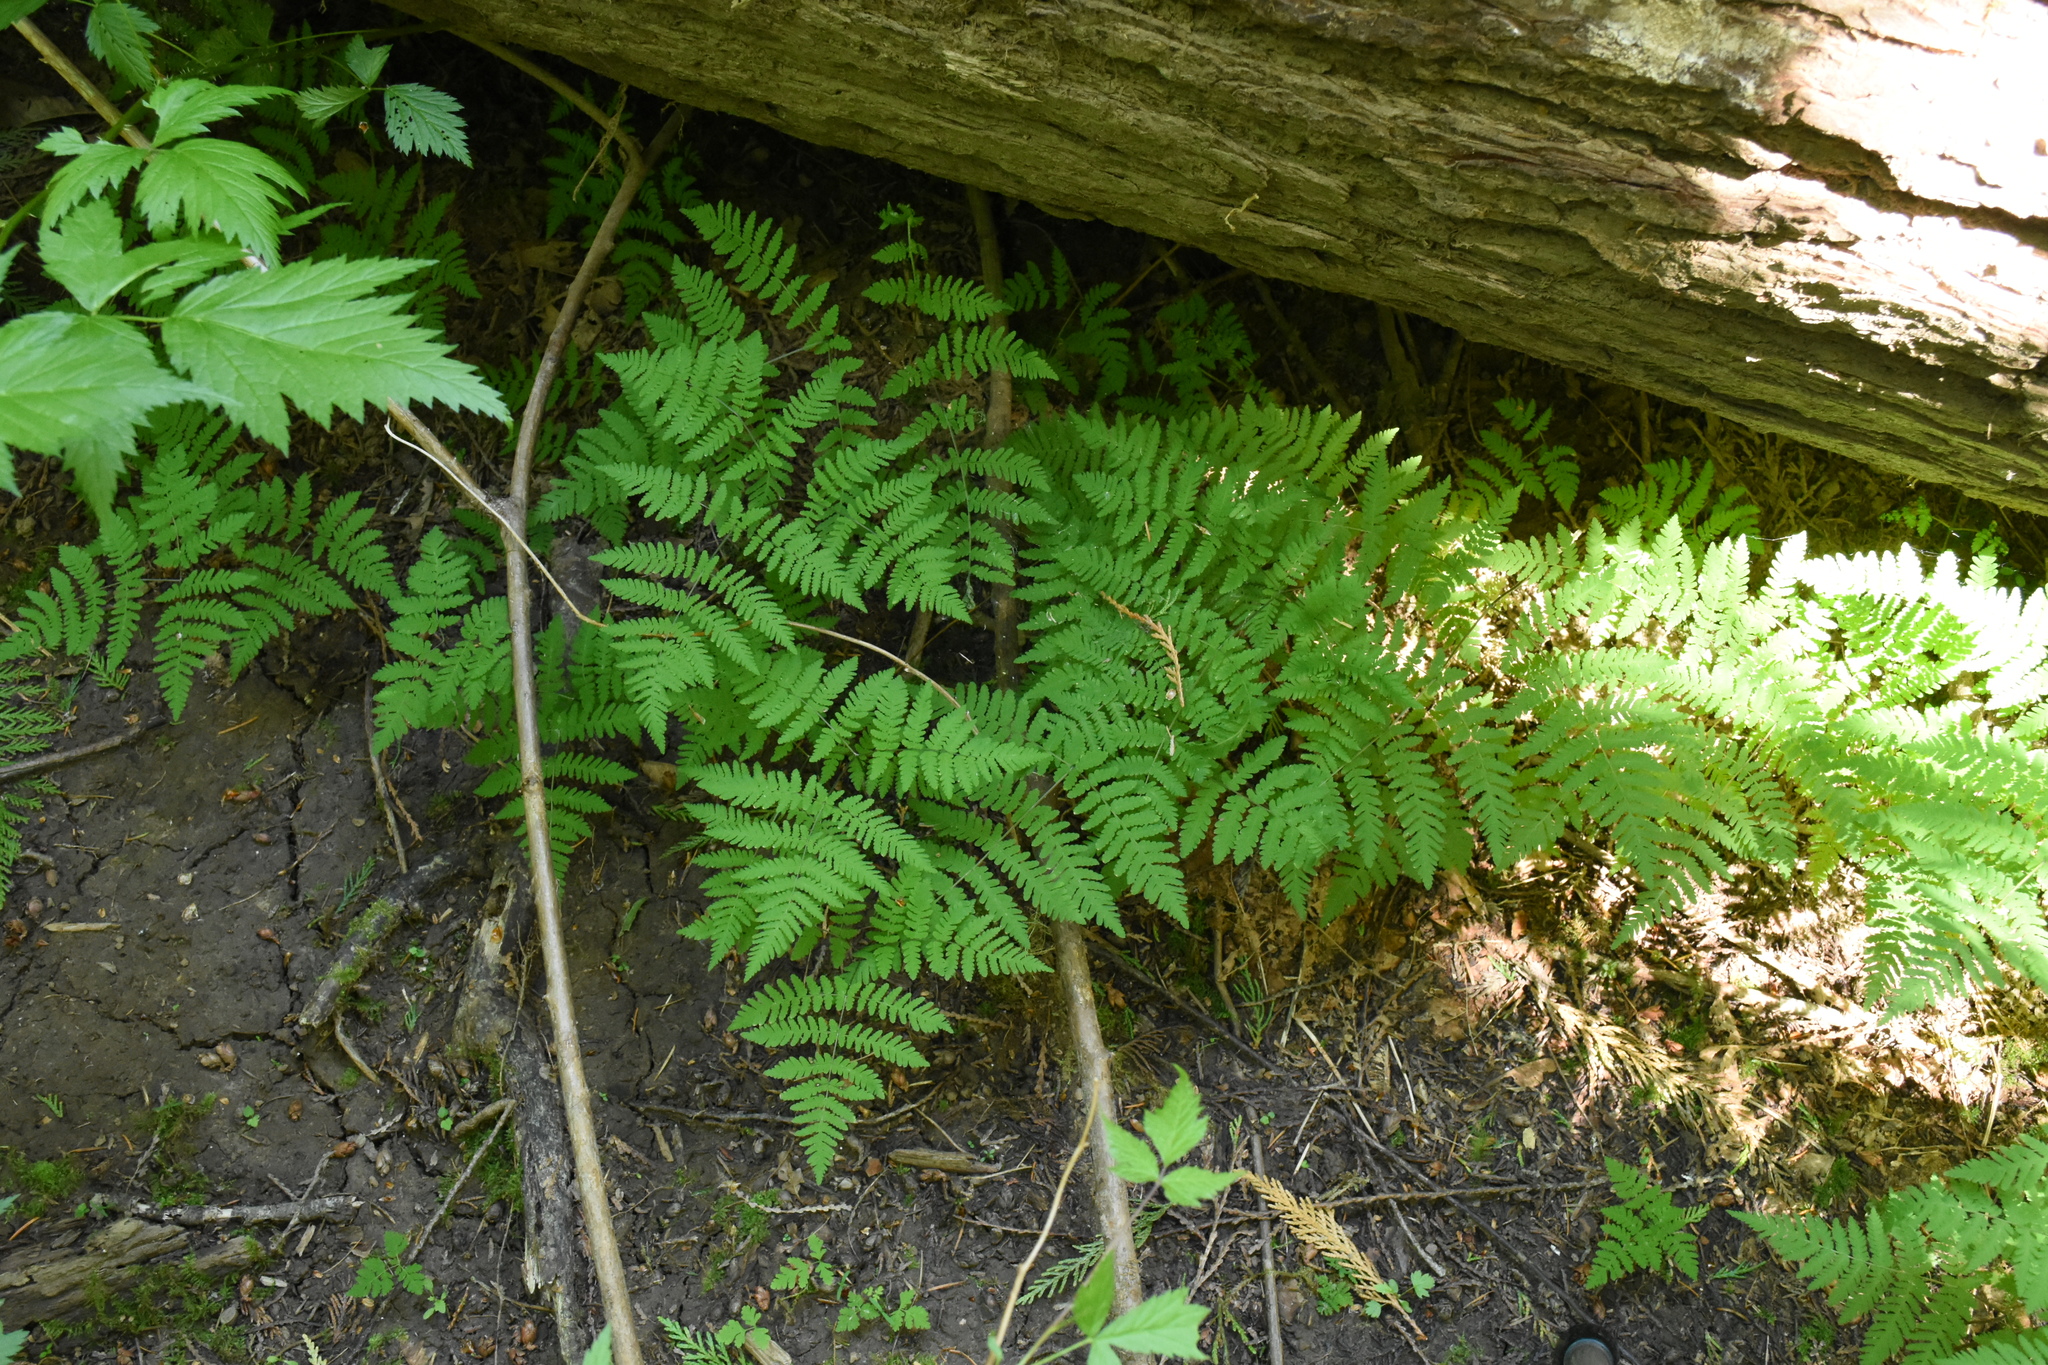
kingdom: Plantae
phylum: Tracheophyta
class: Polypodiopsida
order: Polypodiales
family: Cystopteridaceae
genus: Gymnocarpium
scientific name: Gymnocarpium disjunctum
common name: Western oak fern
